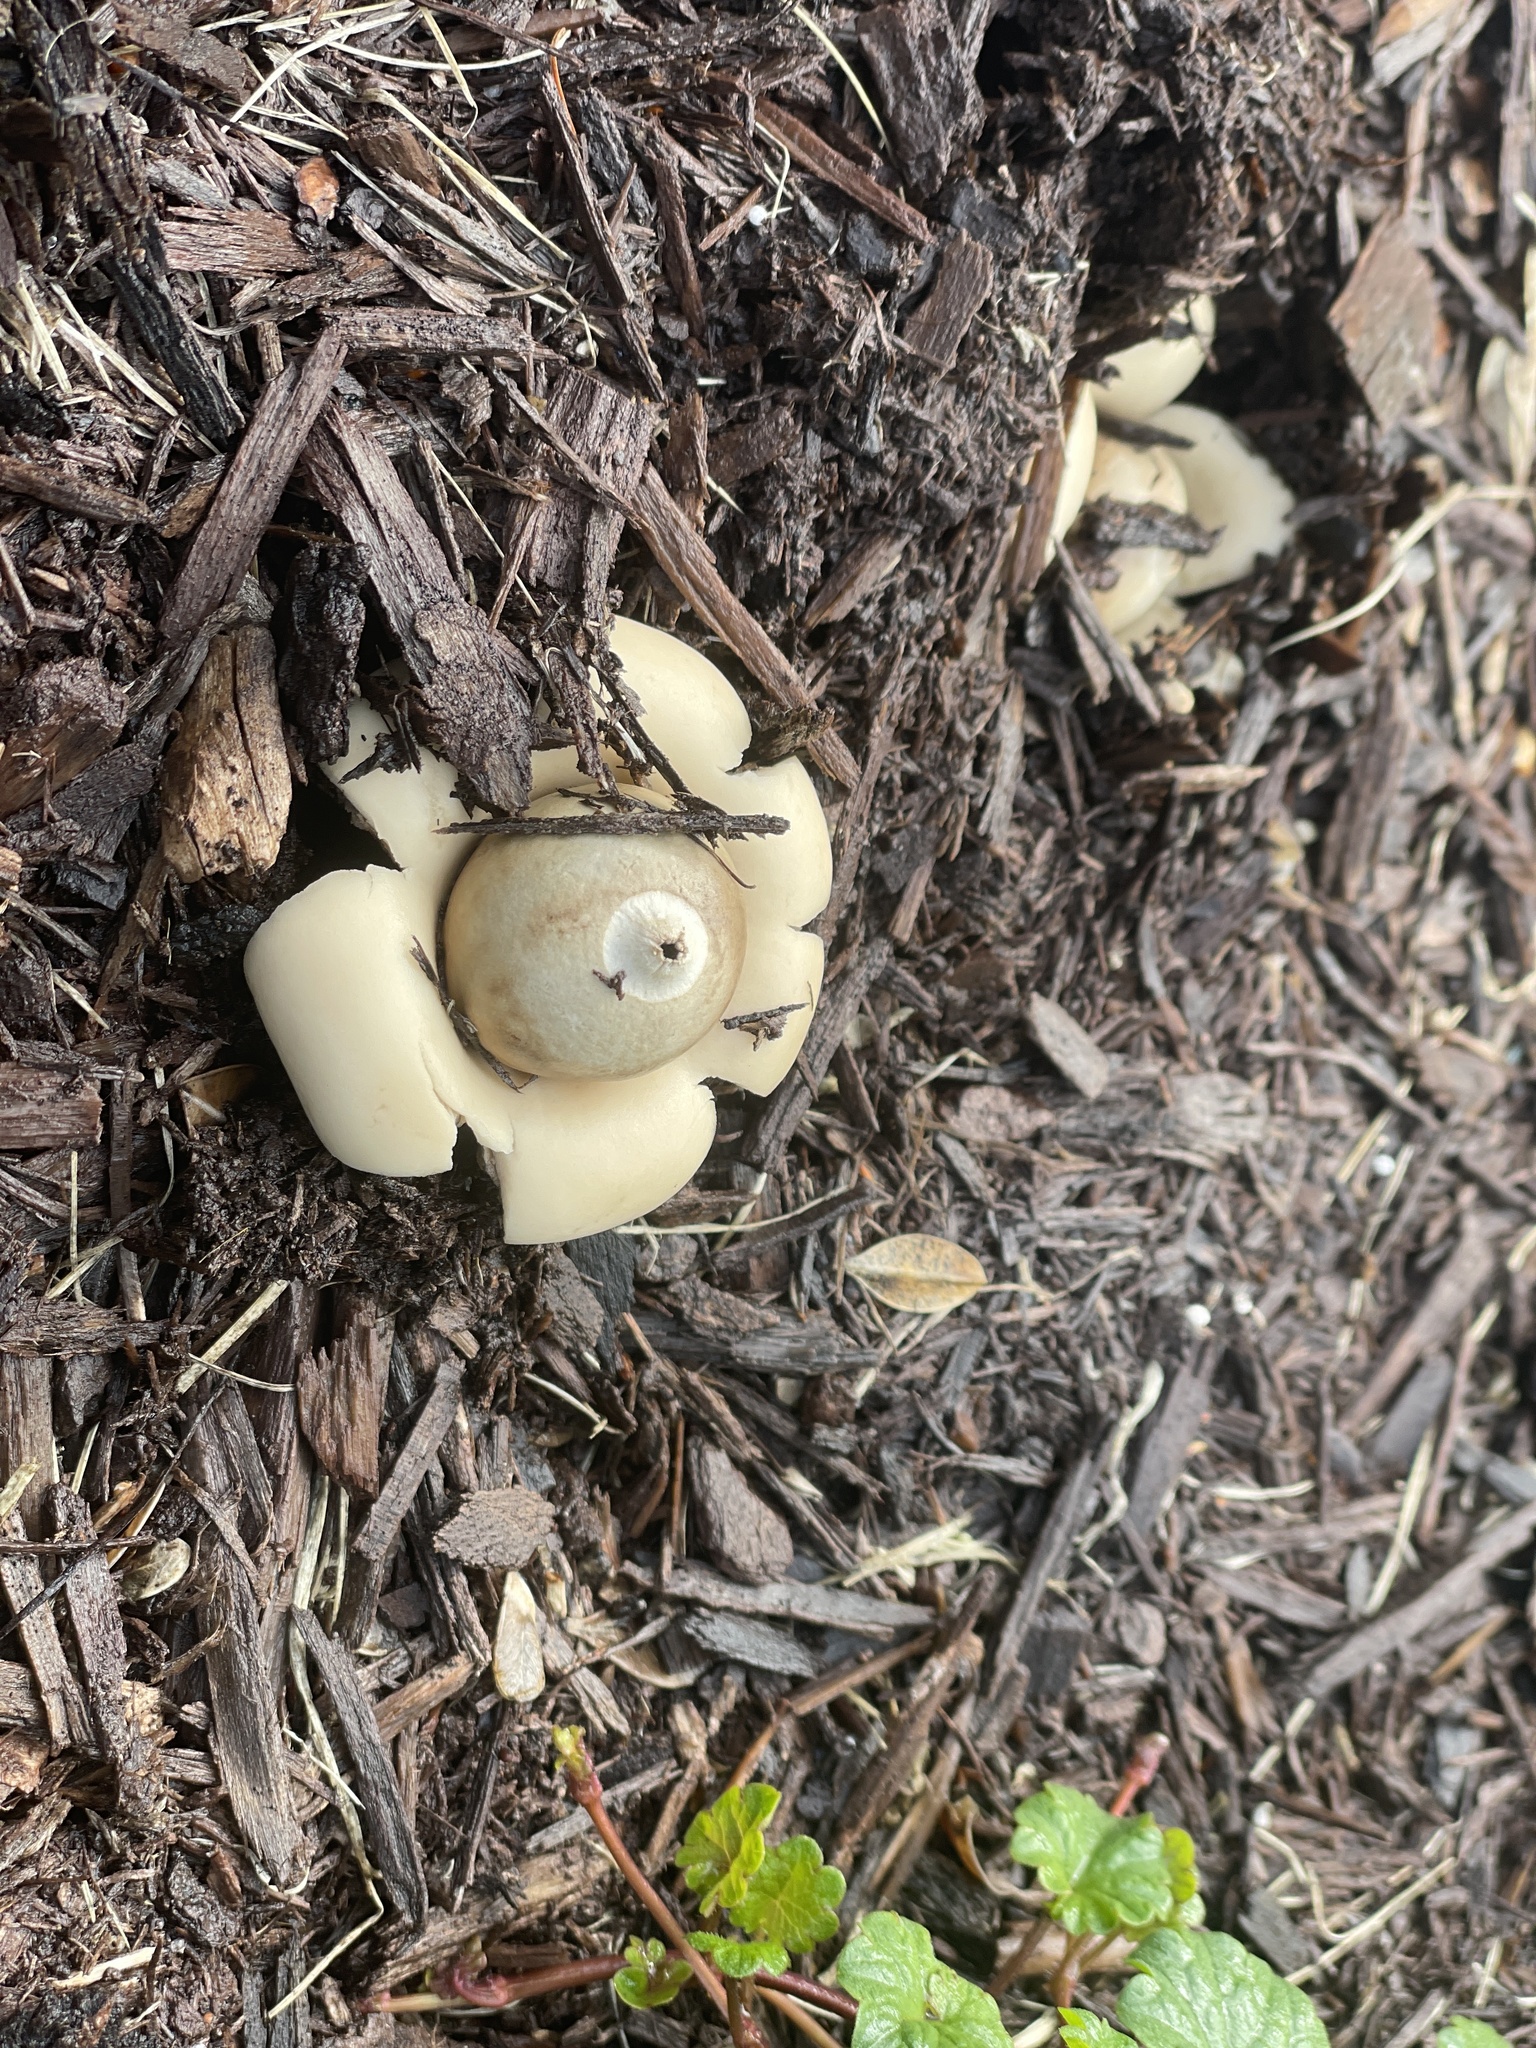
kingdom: Fungi
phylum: Basidiomycota
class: Agaricomycetes
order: Geastrales
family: Geastraceae
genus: Geastrum
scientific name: Geastrum saccatum
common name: Rounded earthstar
